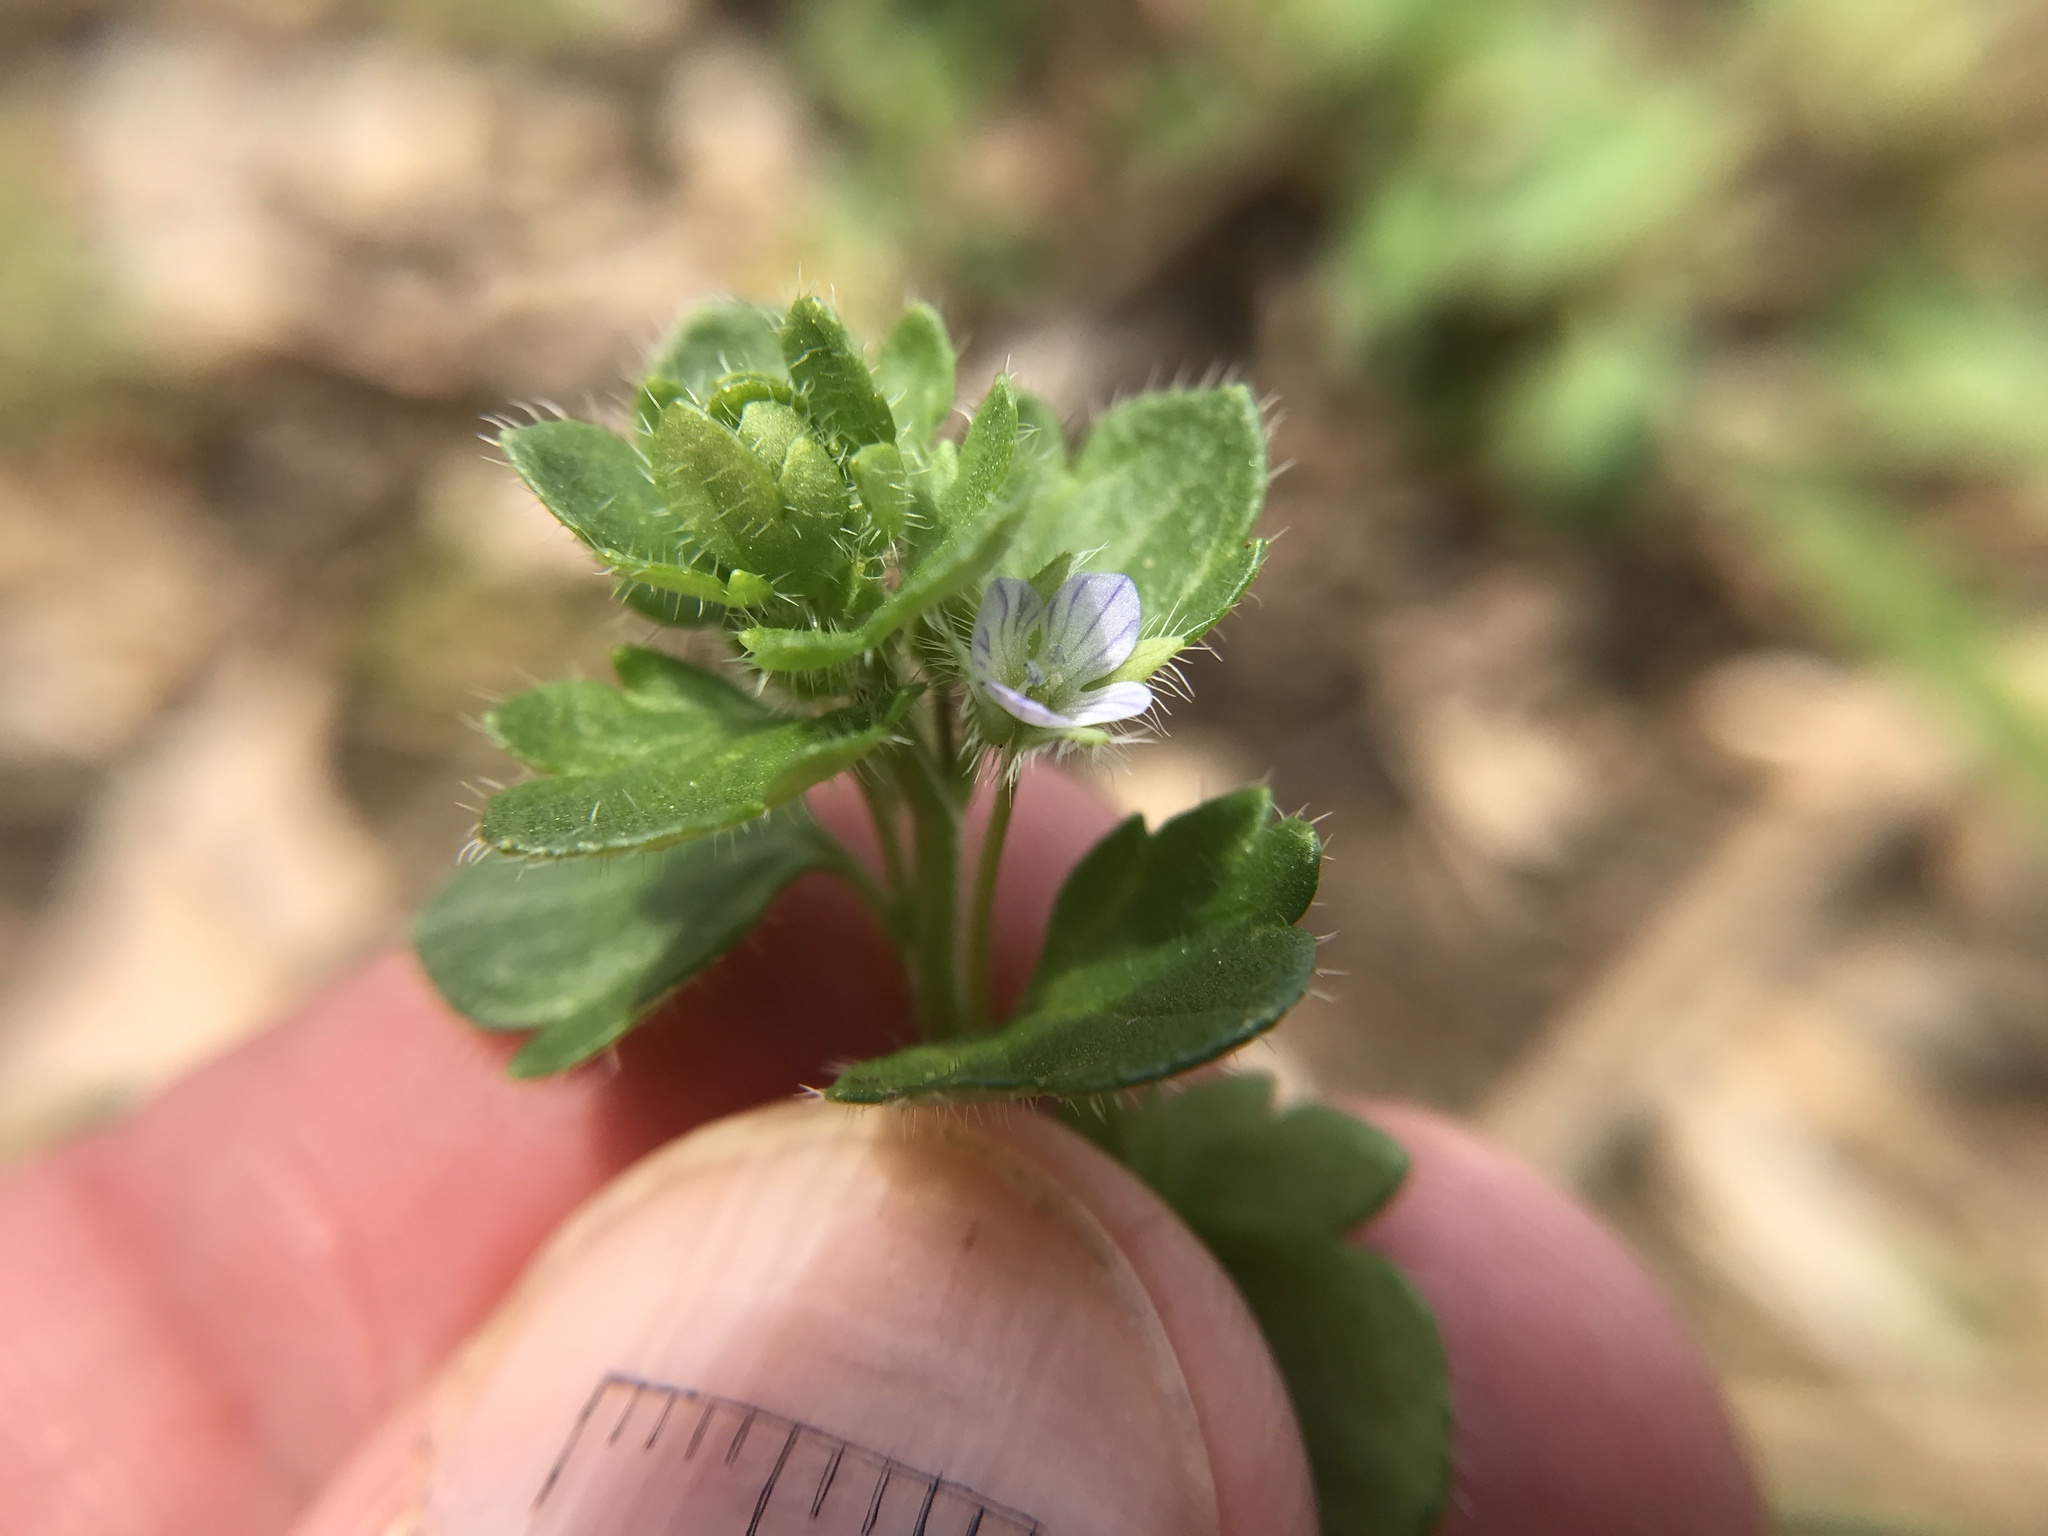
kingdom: Plantae
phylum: Tracheophyta
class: Magnoliopsida
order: Lamiales
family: Plantaginaceae
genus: Veronica
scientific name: Veronica hederifolia
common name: Ivy-leaved speedwell
